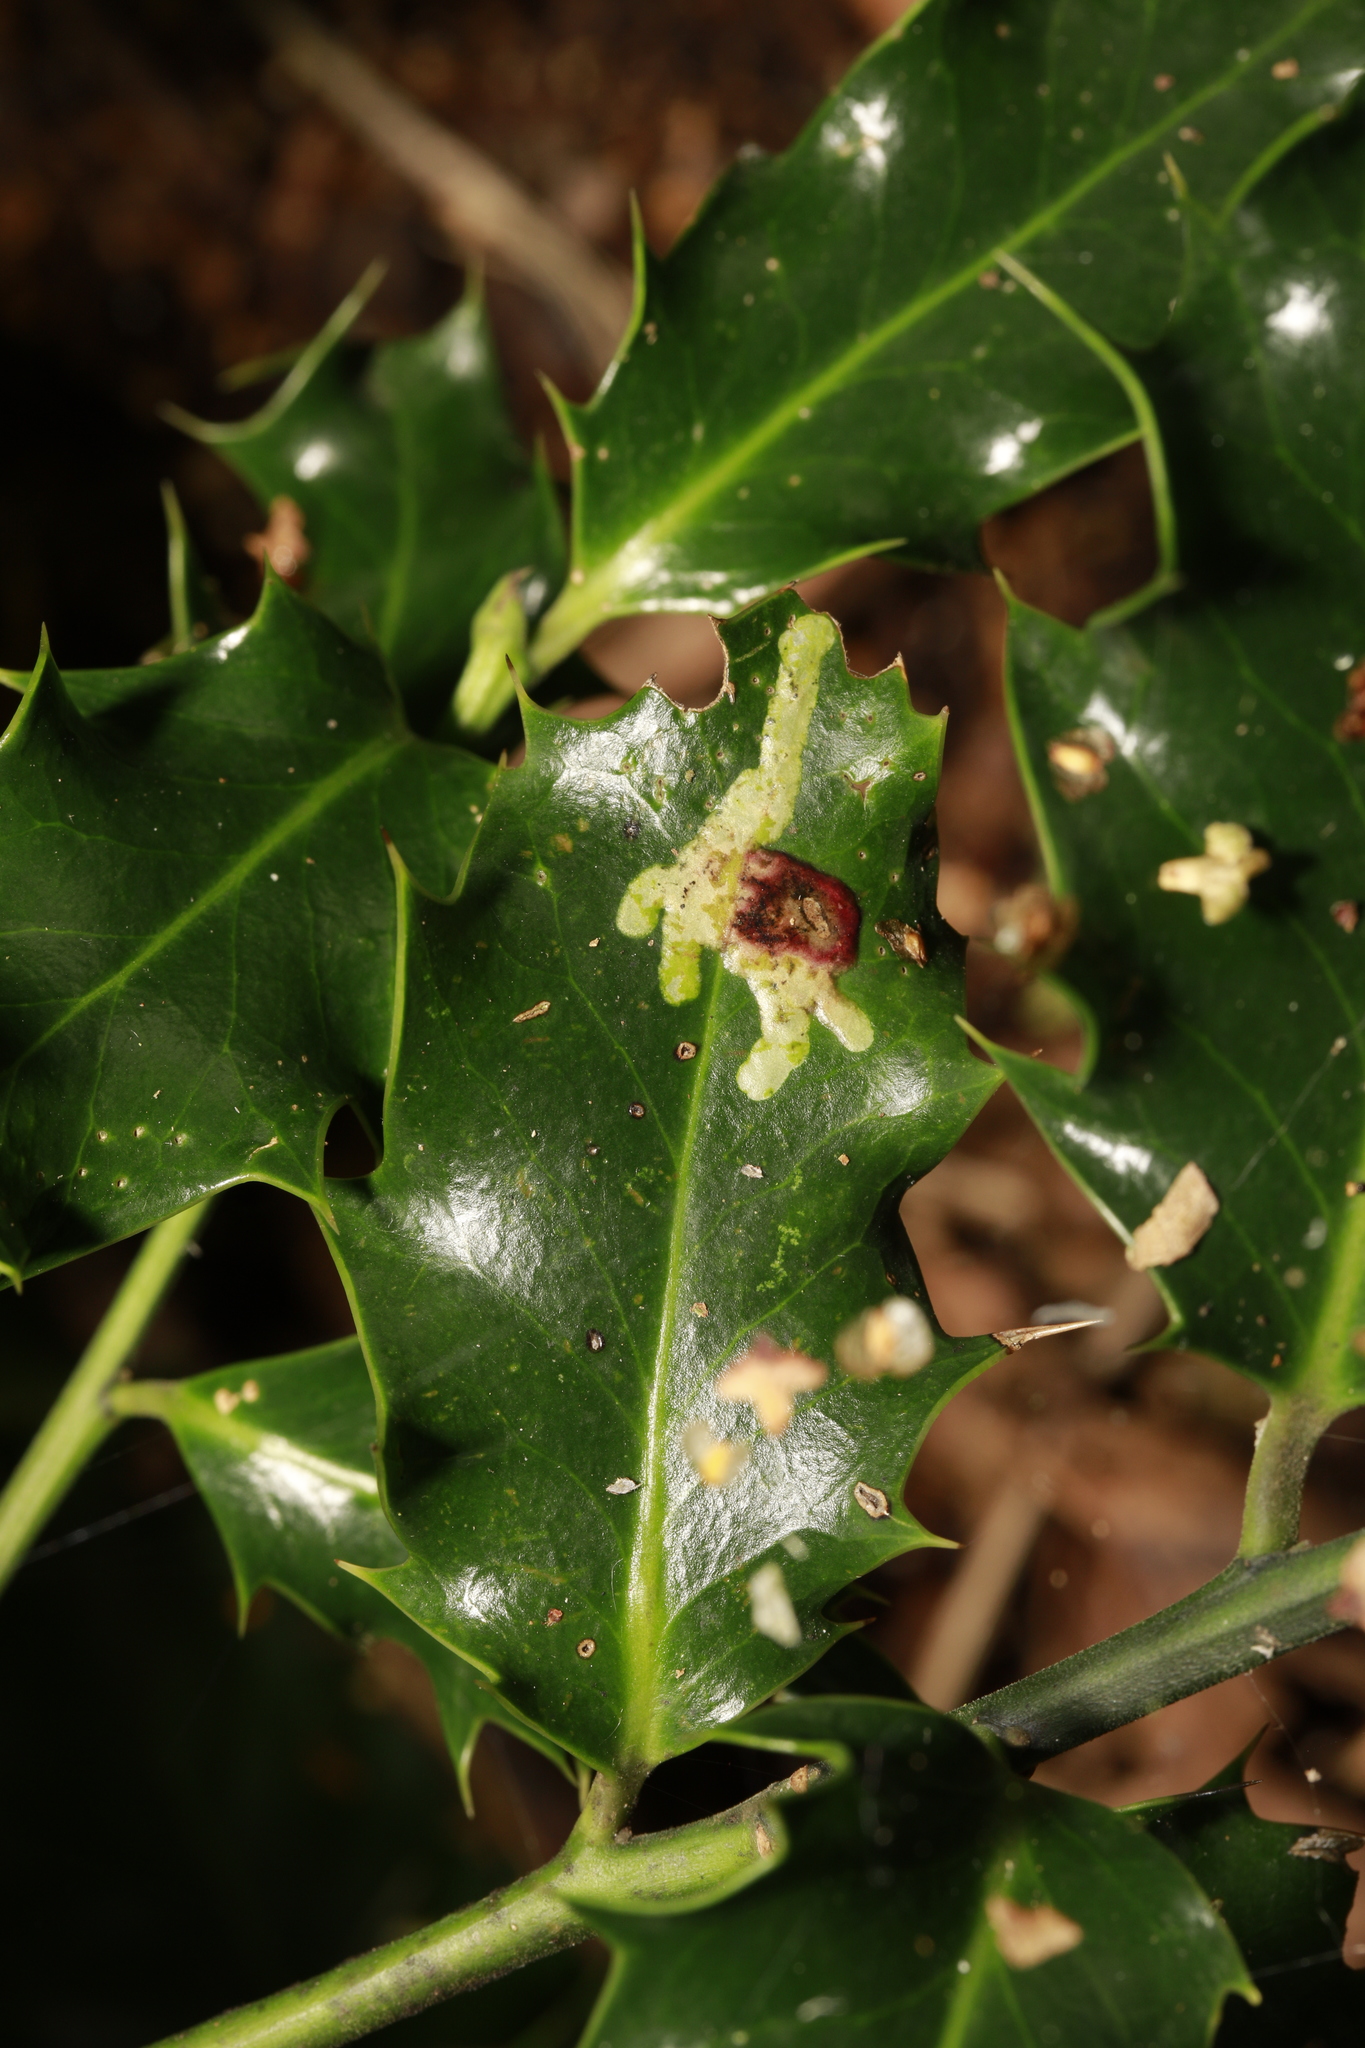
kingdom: Animalia
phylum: Arthropoda
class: Insecta
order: Diptera
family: Agromyzidae
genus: Phytomyza
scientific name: Phytomyza ilicis
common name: Holly leafminer
